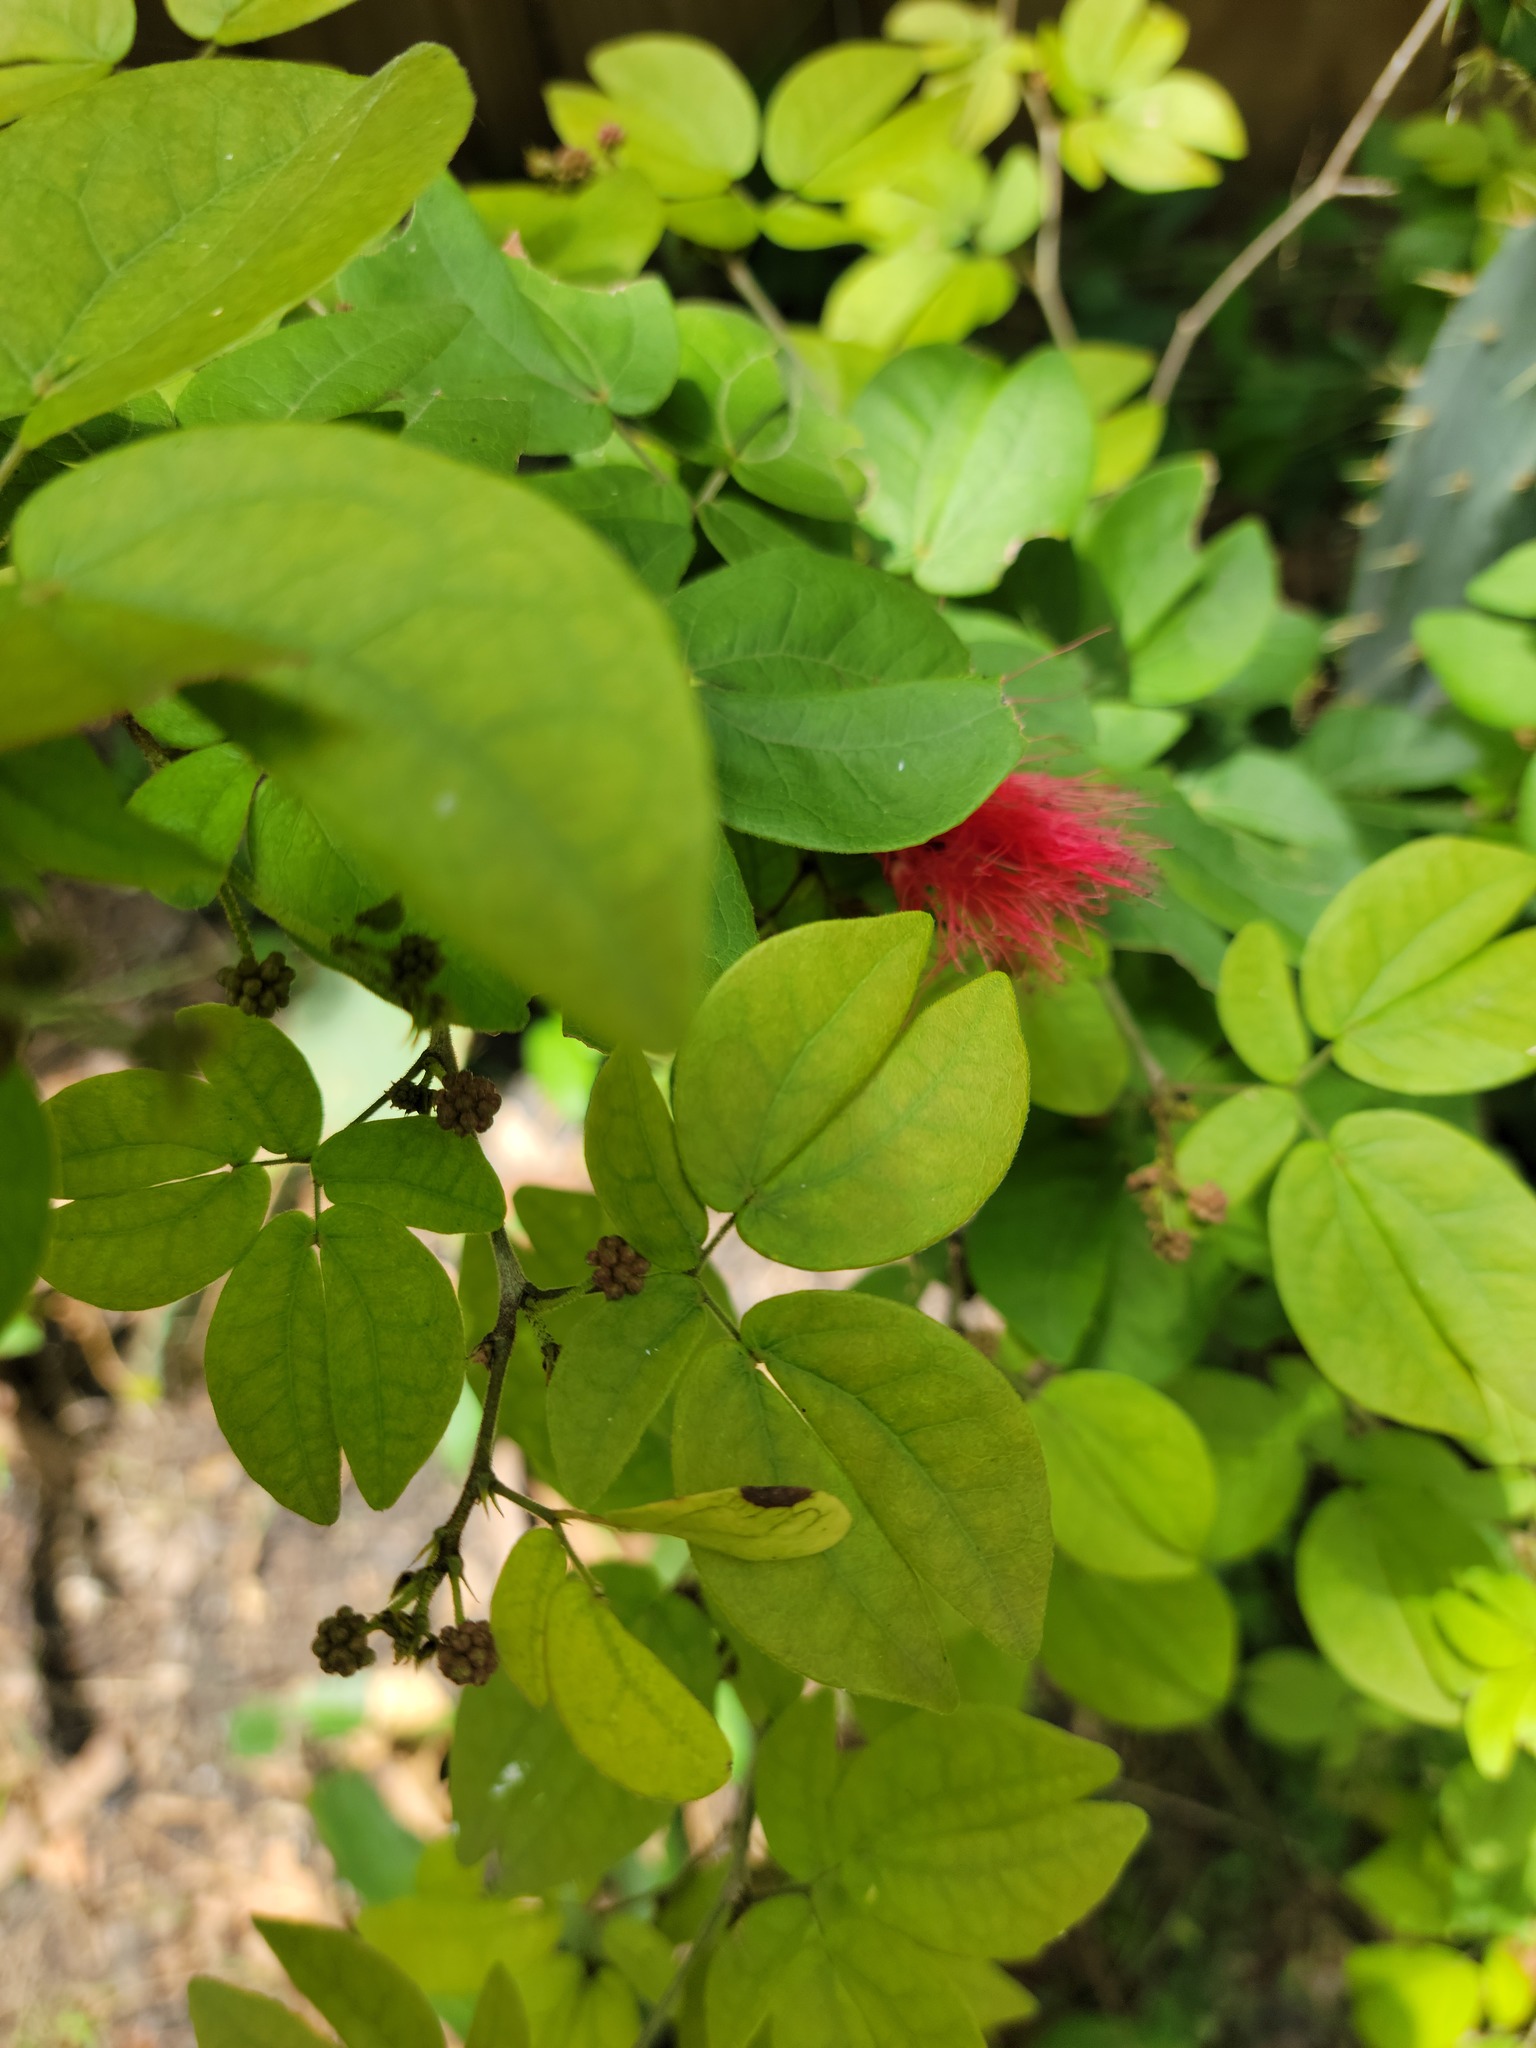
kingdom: Plantae
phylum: Tracheophyta
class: Magnoliopsida
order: Fabales
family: Fabaceae
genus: Calliandra
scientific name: Calliandra tergemina
